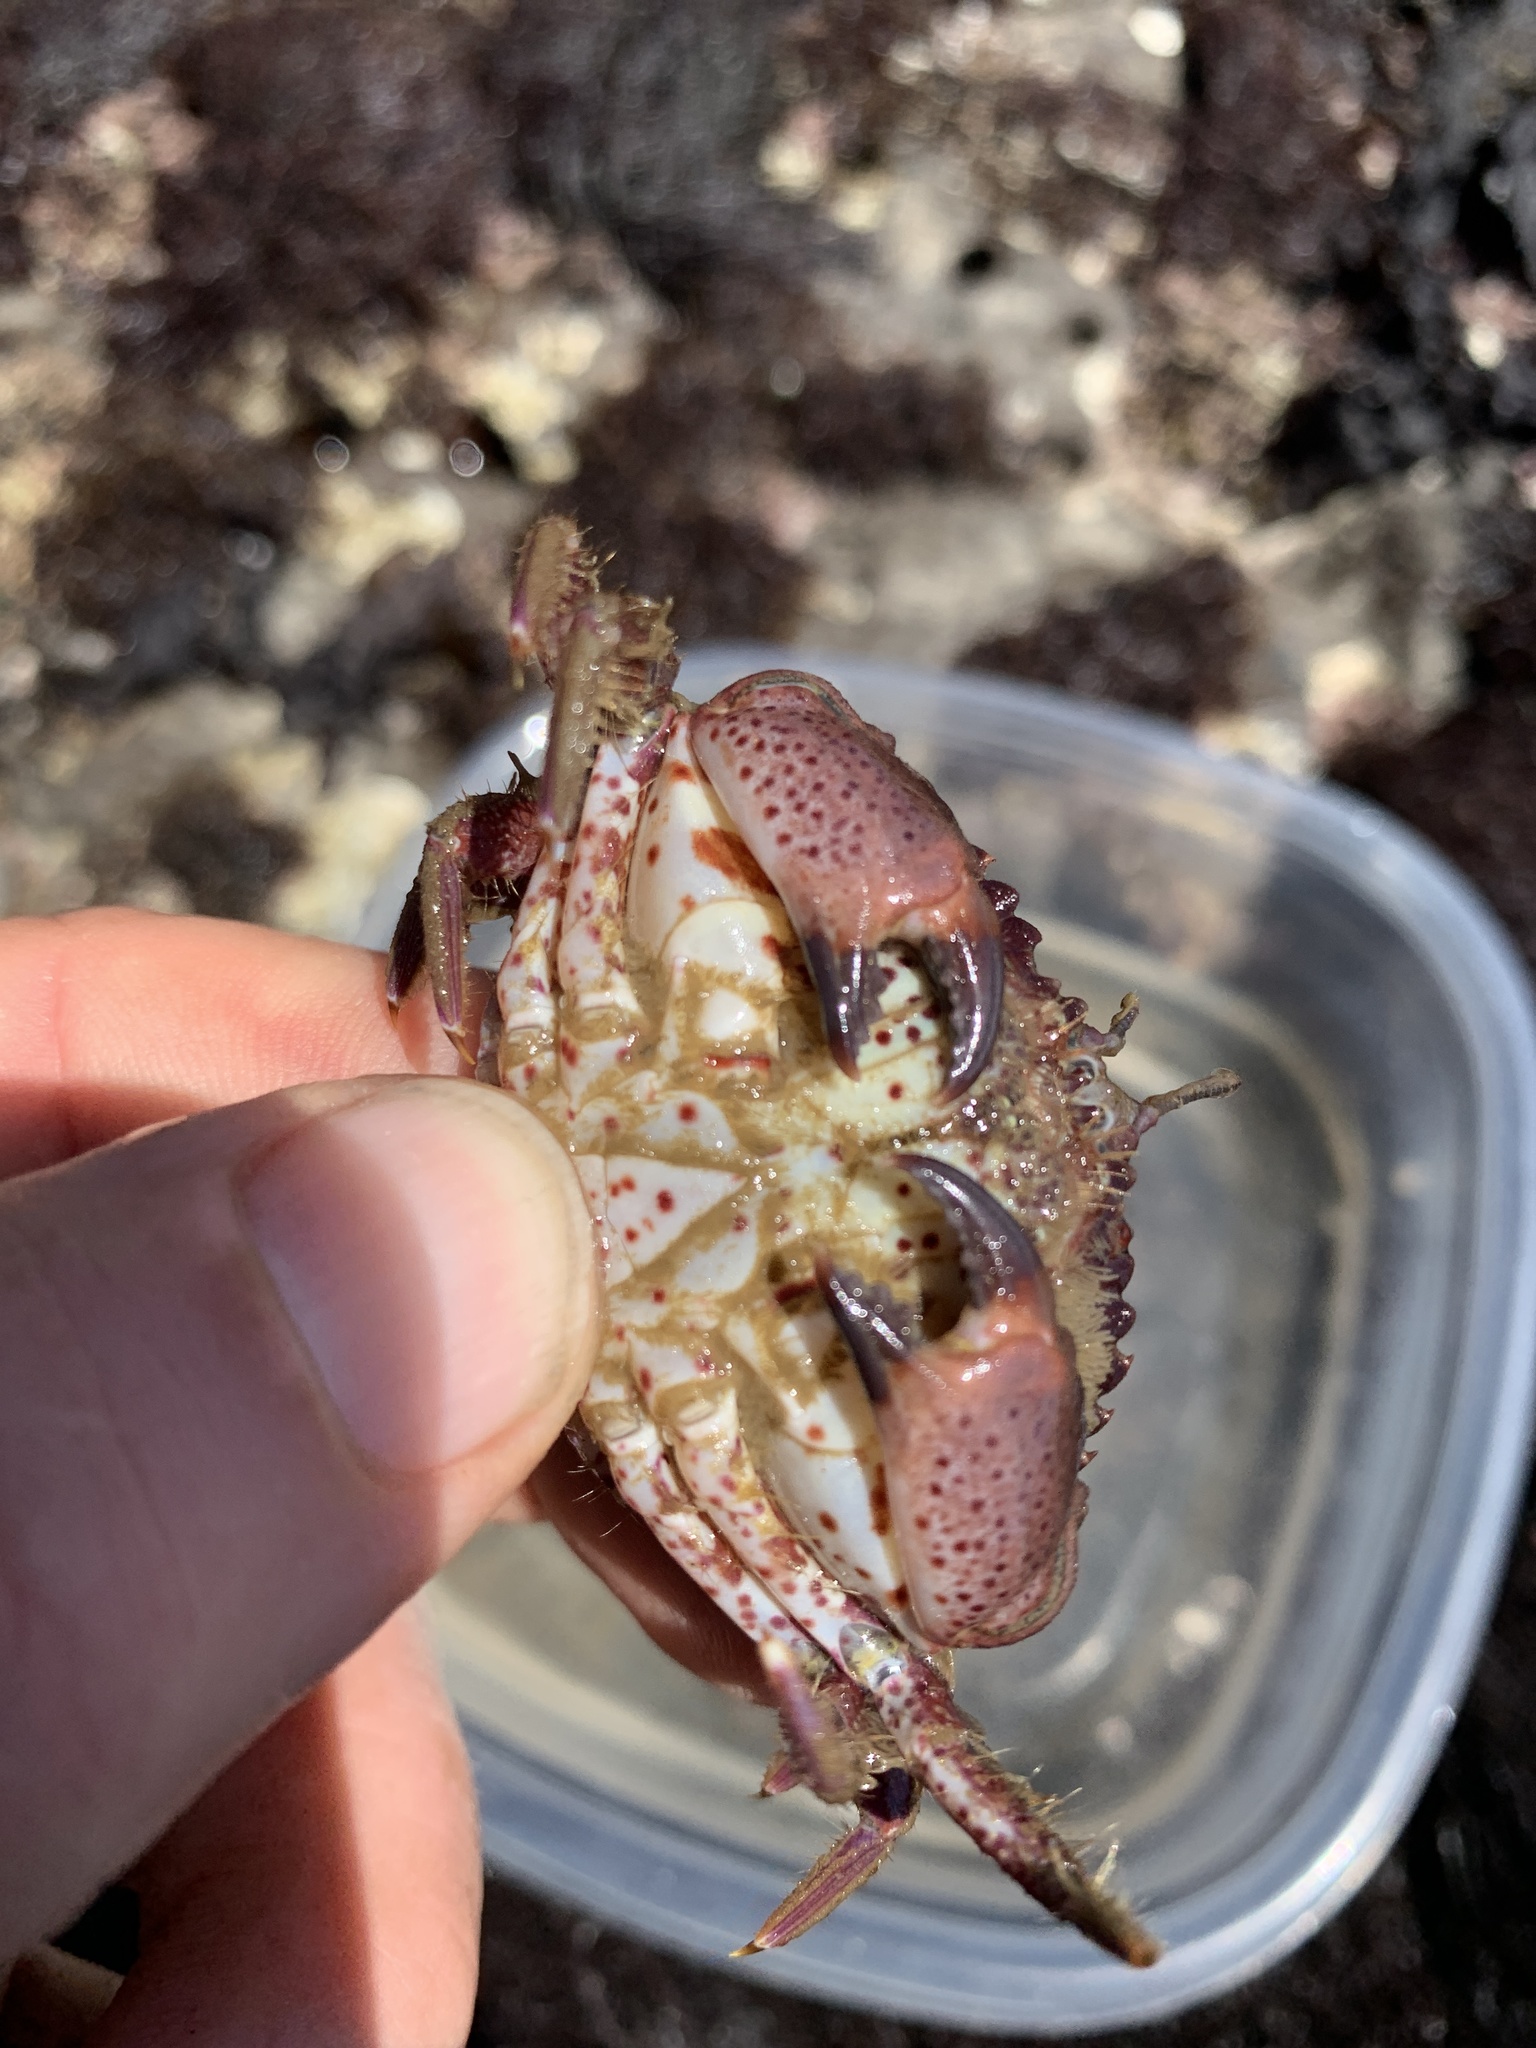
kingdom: Animalia
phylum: Arthropoda
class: Malacostraca
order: Decapoda
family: Cancridae
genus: Romaleon
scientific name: Romaleon antennarium
